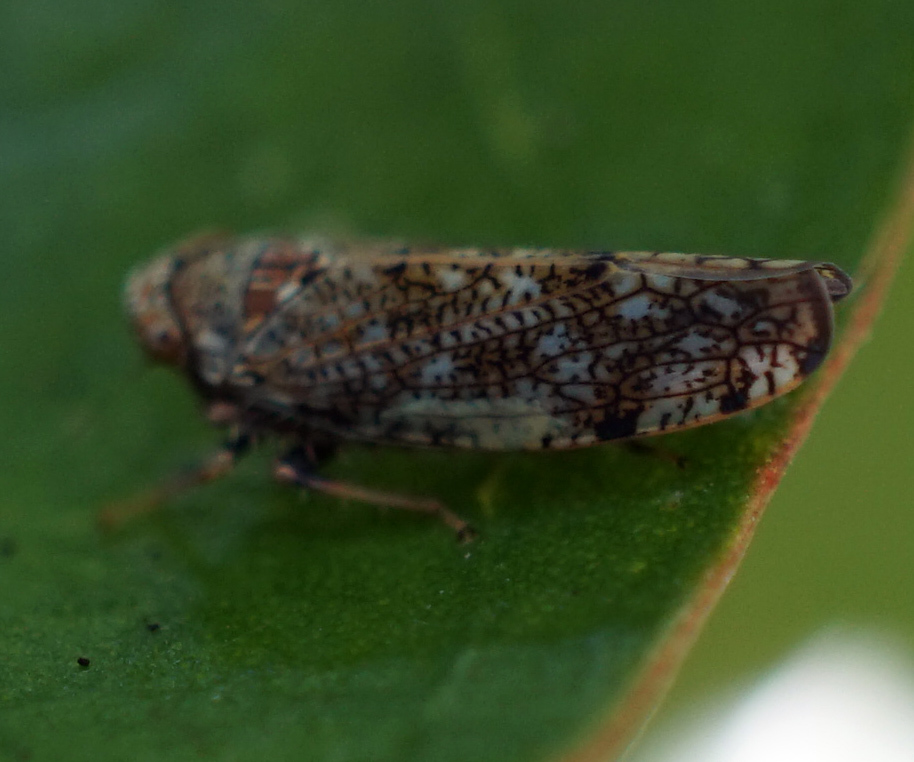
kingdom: Animalia
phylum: Arthropoda
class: Insecta
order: Hemiptera
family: Cicadellidae
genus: Orientus
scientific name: Orientus ishidae
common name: Japanese leafhopper
